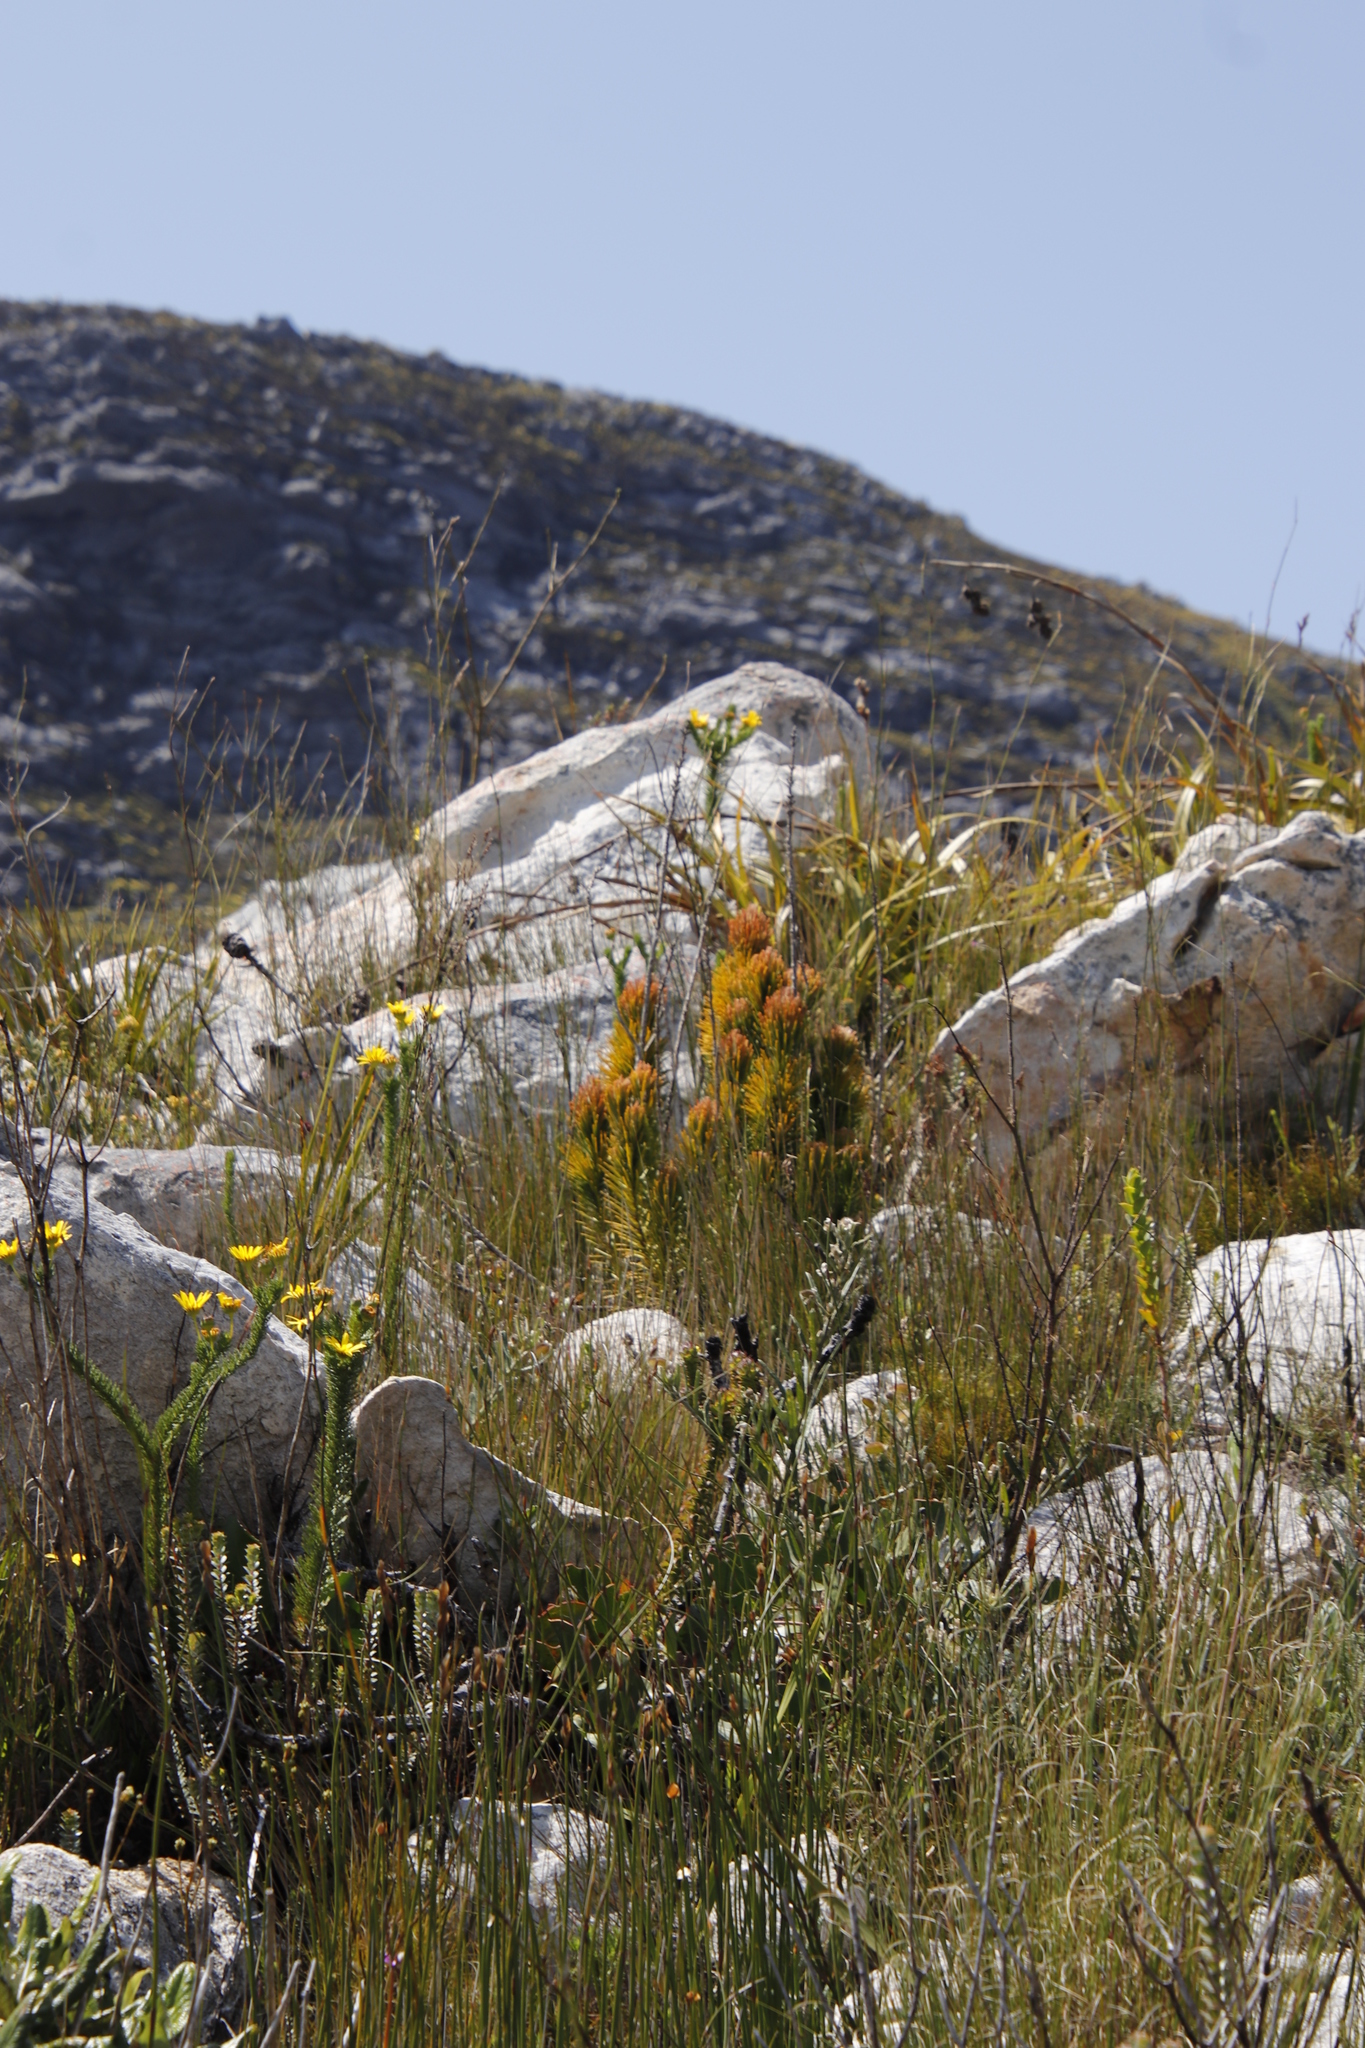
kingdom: Plantae
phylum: Tracheophyta
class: Magnoliopsida
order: Lamiales
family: Stilbaceae
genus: Retzia
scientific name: Retzia capensis
